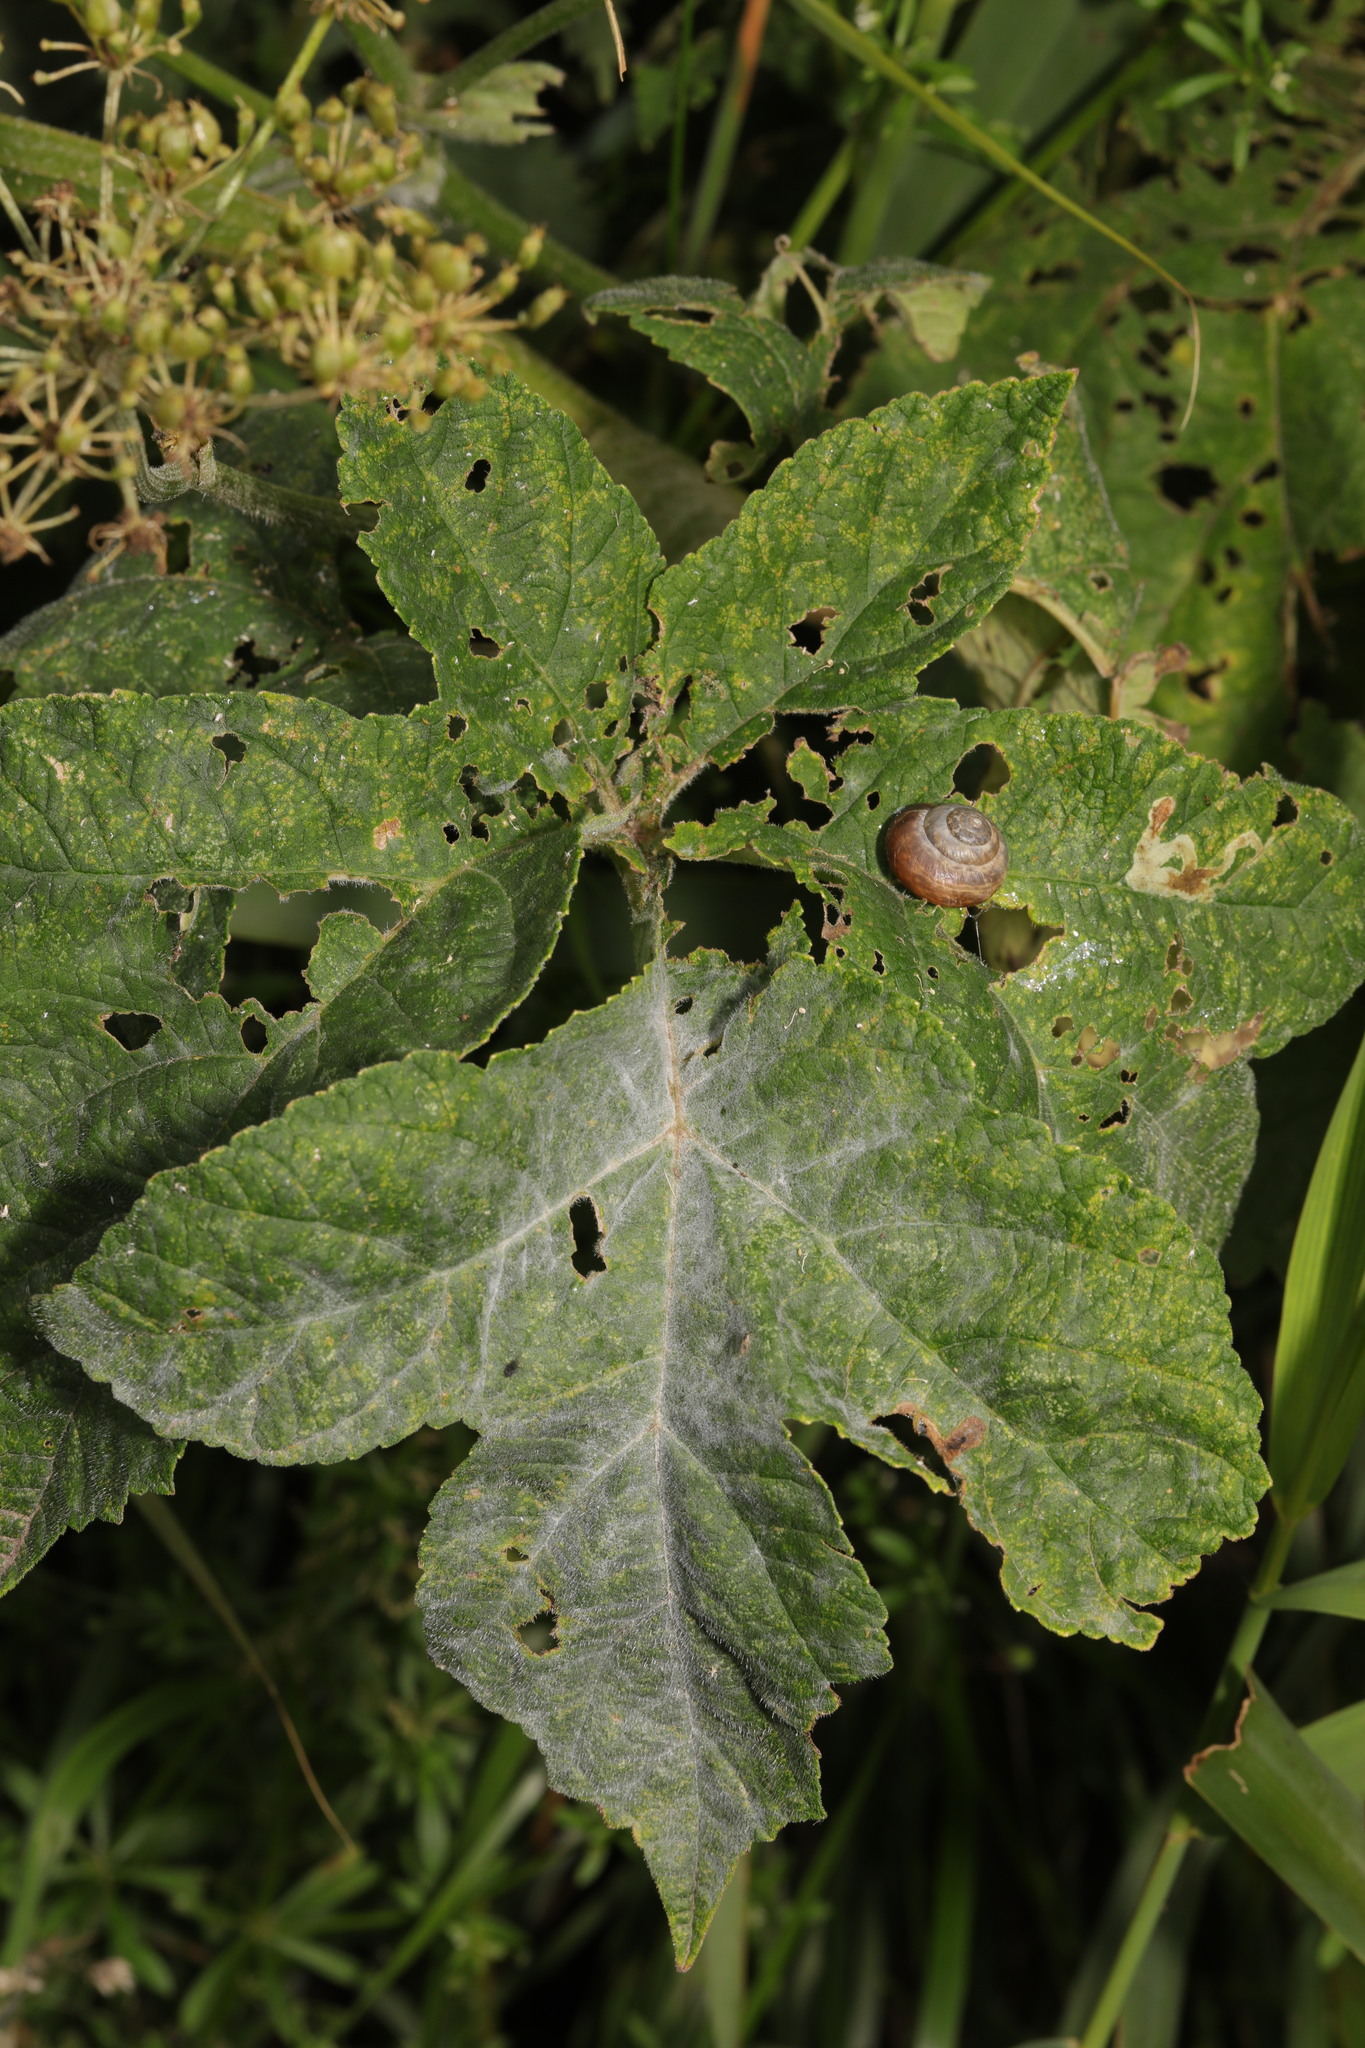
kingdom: Fungi
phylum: Ascomycota
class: Leotiomycetes
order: Helotiales
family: Erysiphaceae
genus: Erysiphe
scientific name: Erysiphe heraclei
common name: Umbellifer mildew
